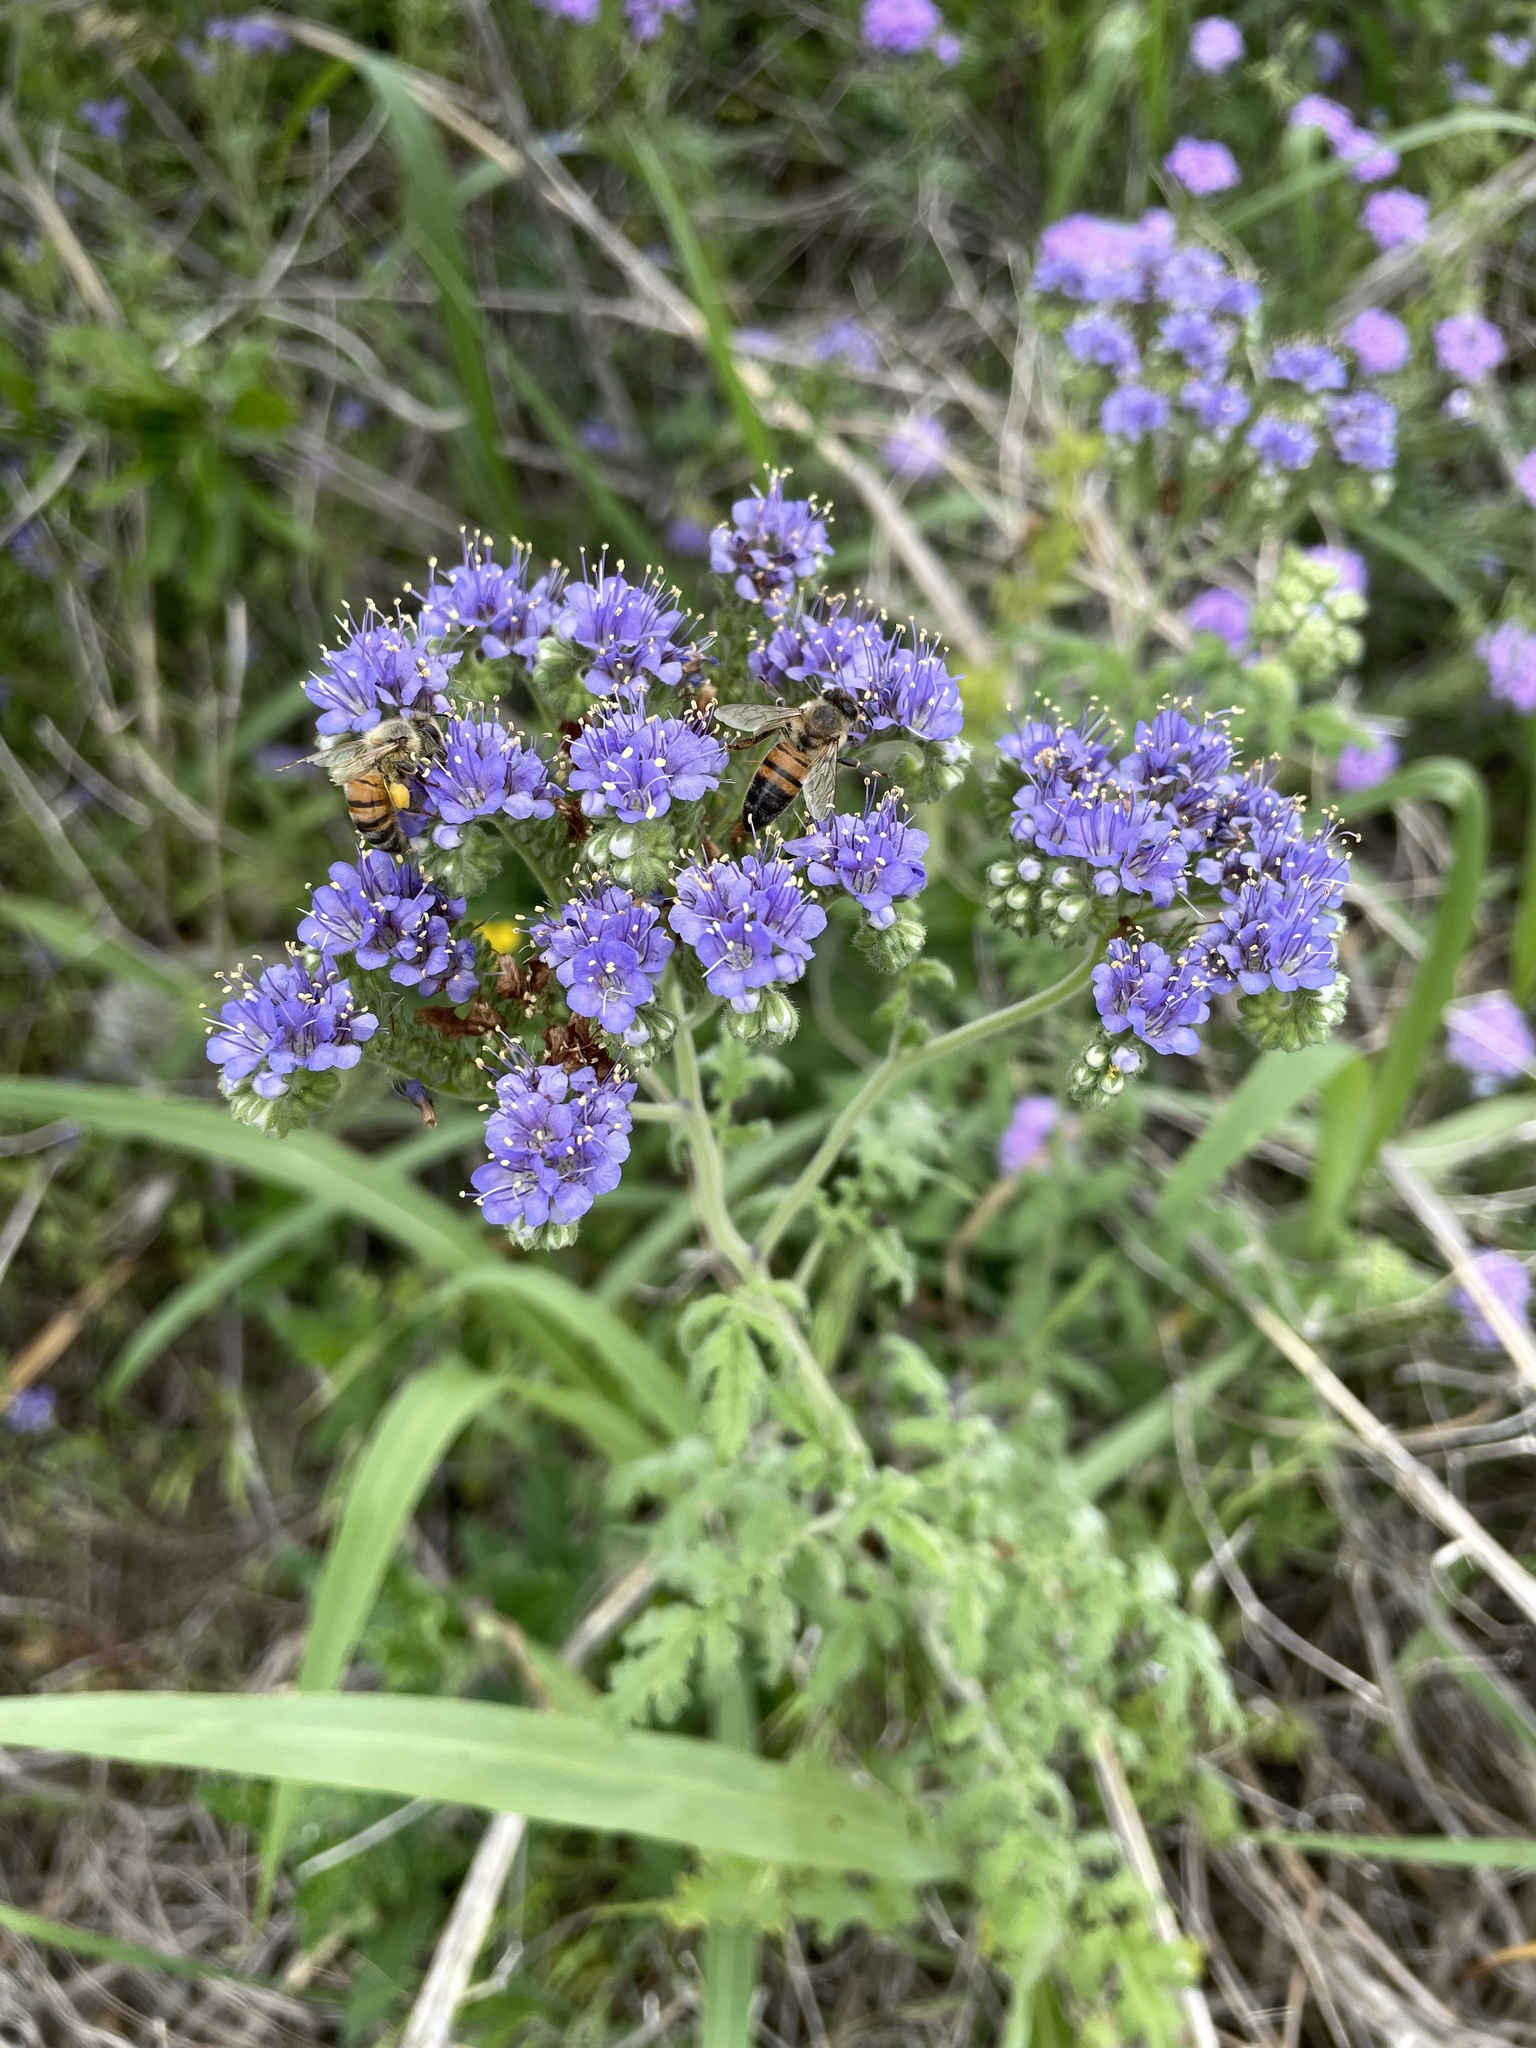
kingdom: Plantae
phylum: Tracheophyta
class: Magnoliopsida
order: Boraginales
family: Hydrophyllaceae
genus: Phacelia
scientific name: Phacelia congesta
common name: Blue curls
